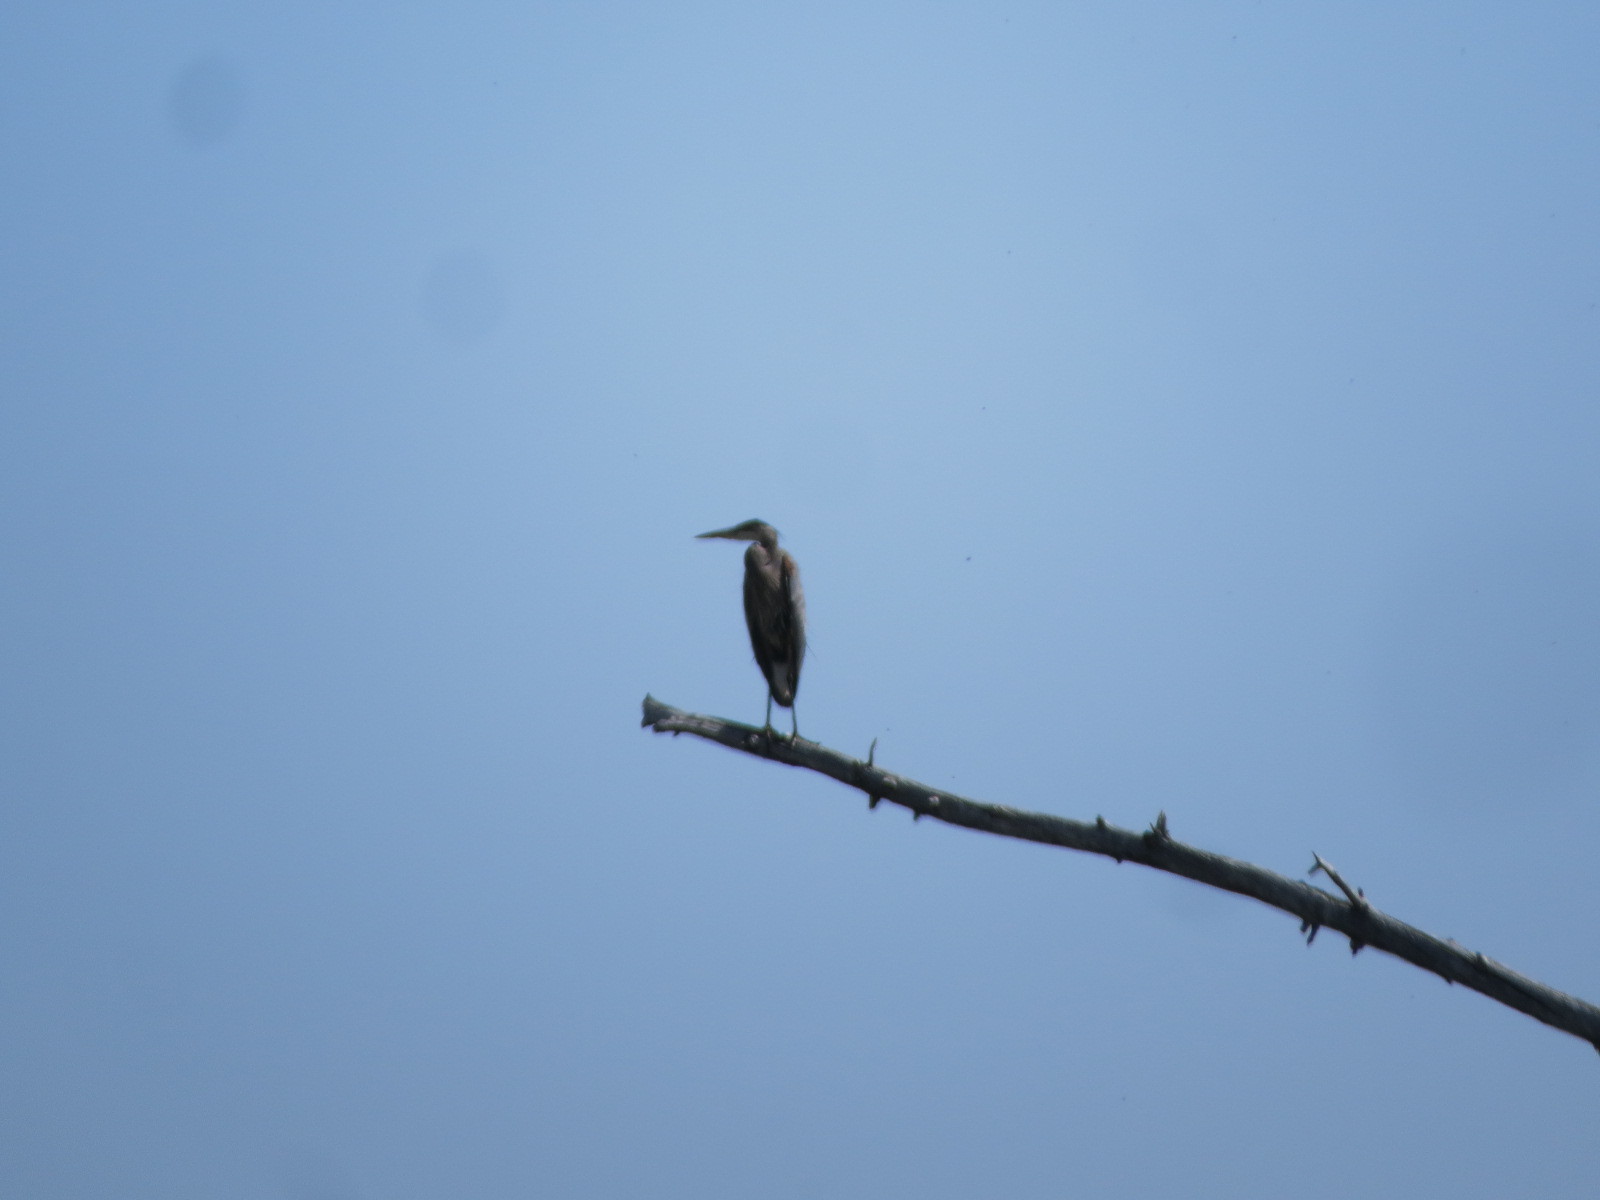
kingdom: Animalia
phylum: Chordata
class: Aves
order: Pelecaniformes
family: Ardeidae
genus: Ardea
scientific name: Ardea herodias
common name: Great blue heron
